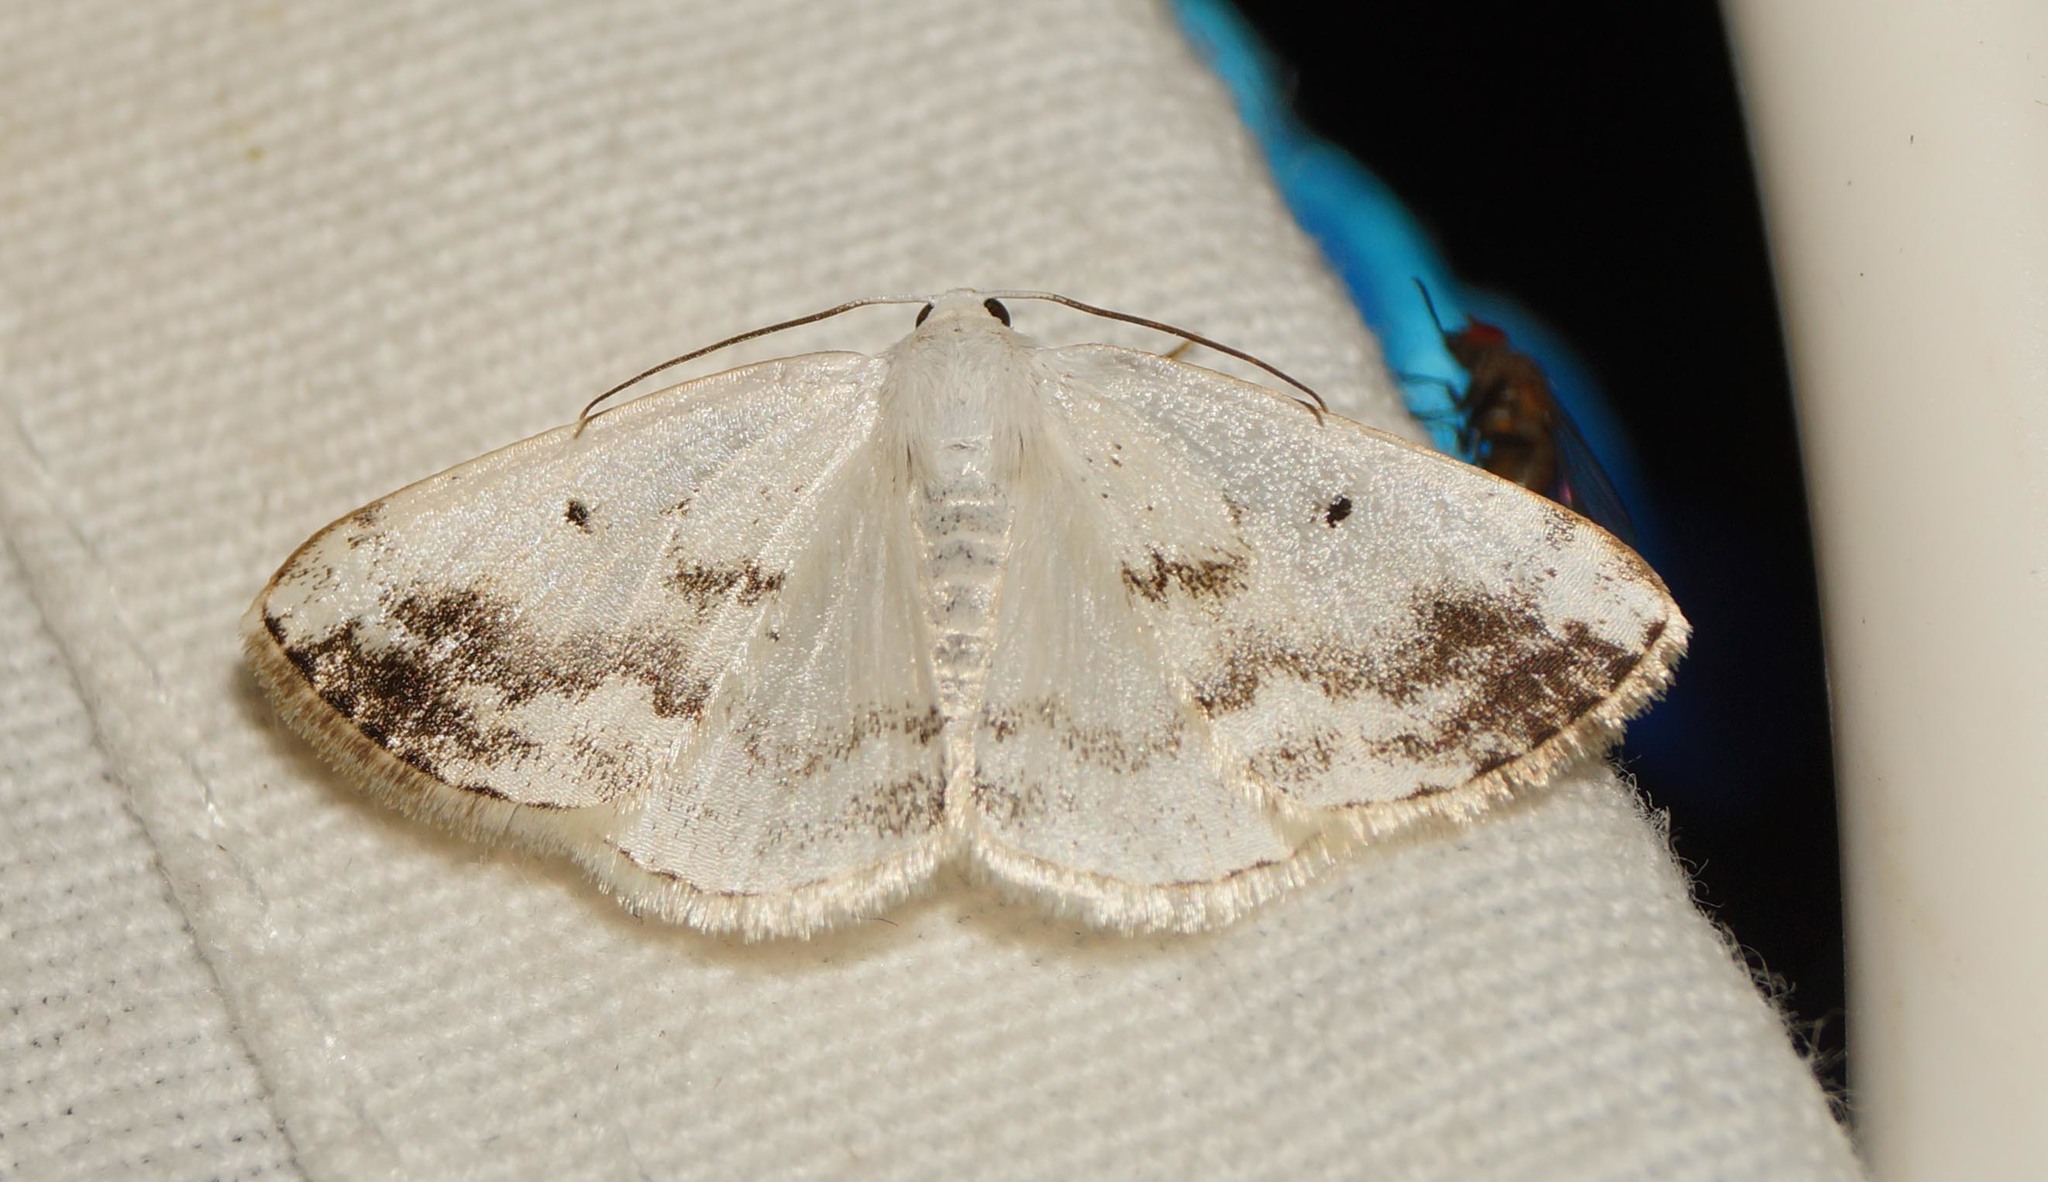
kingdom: Animalia
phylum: Arthropoda
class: Insecta
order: Lepidoptera
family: Geometridae
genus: Lomographa
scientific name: Lomographa temerata
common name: Clouded silver
